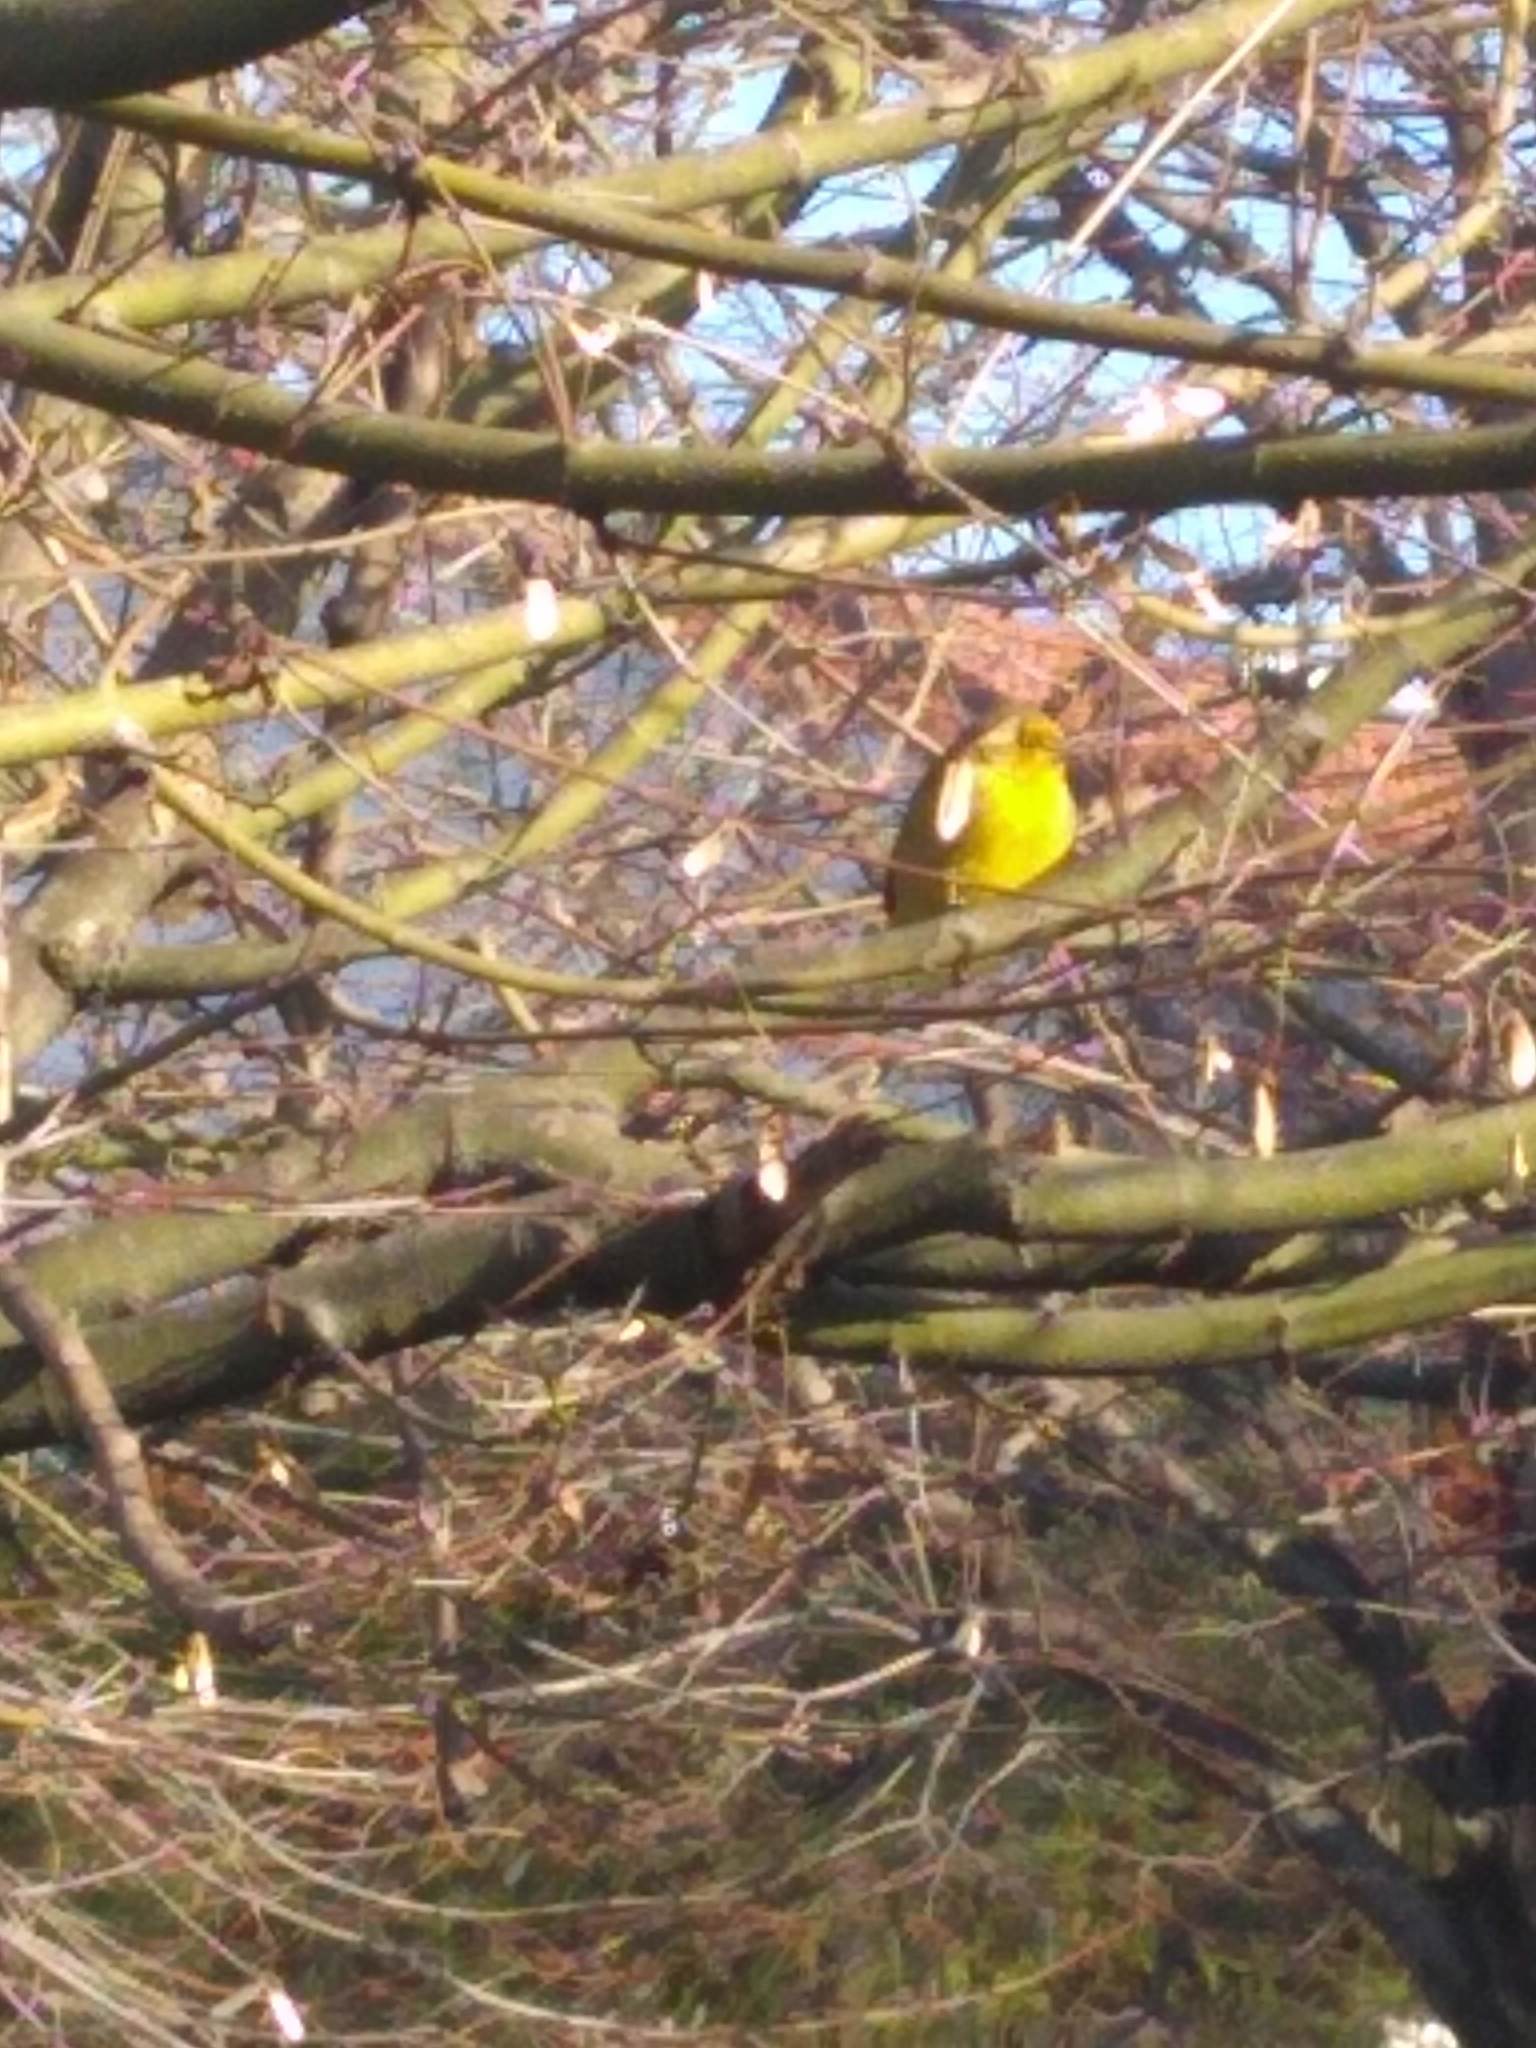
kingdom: Animalia
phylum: Chordata
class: Aves
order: Passeriformes
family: Thraupidae
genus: Sicalis
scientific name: Sicalis flaveola
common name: Saffron finch
